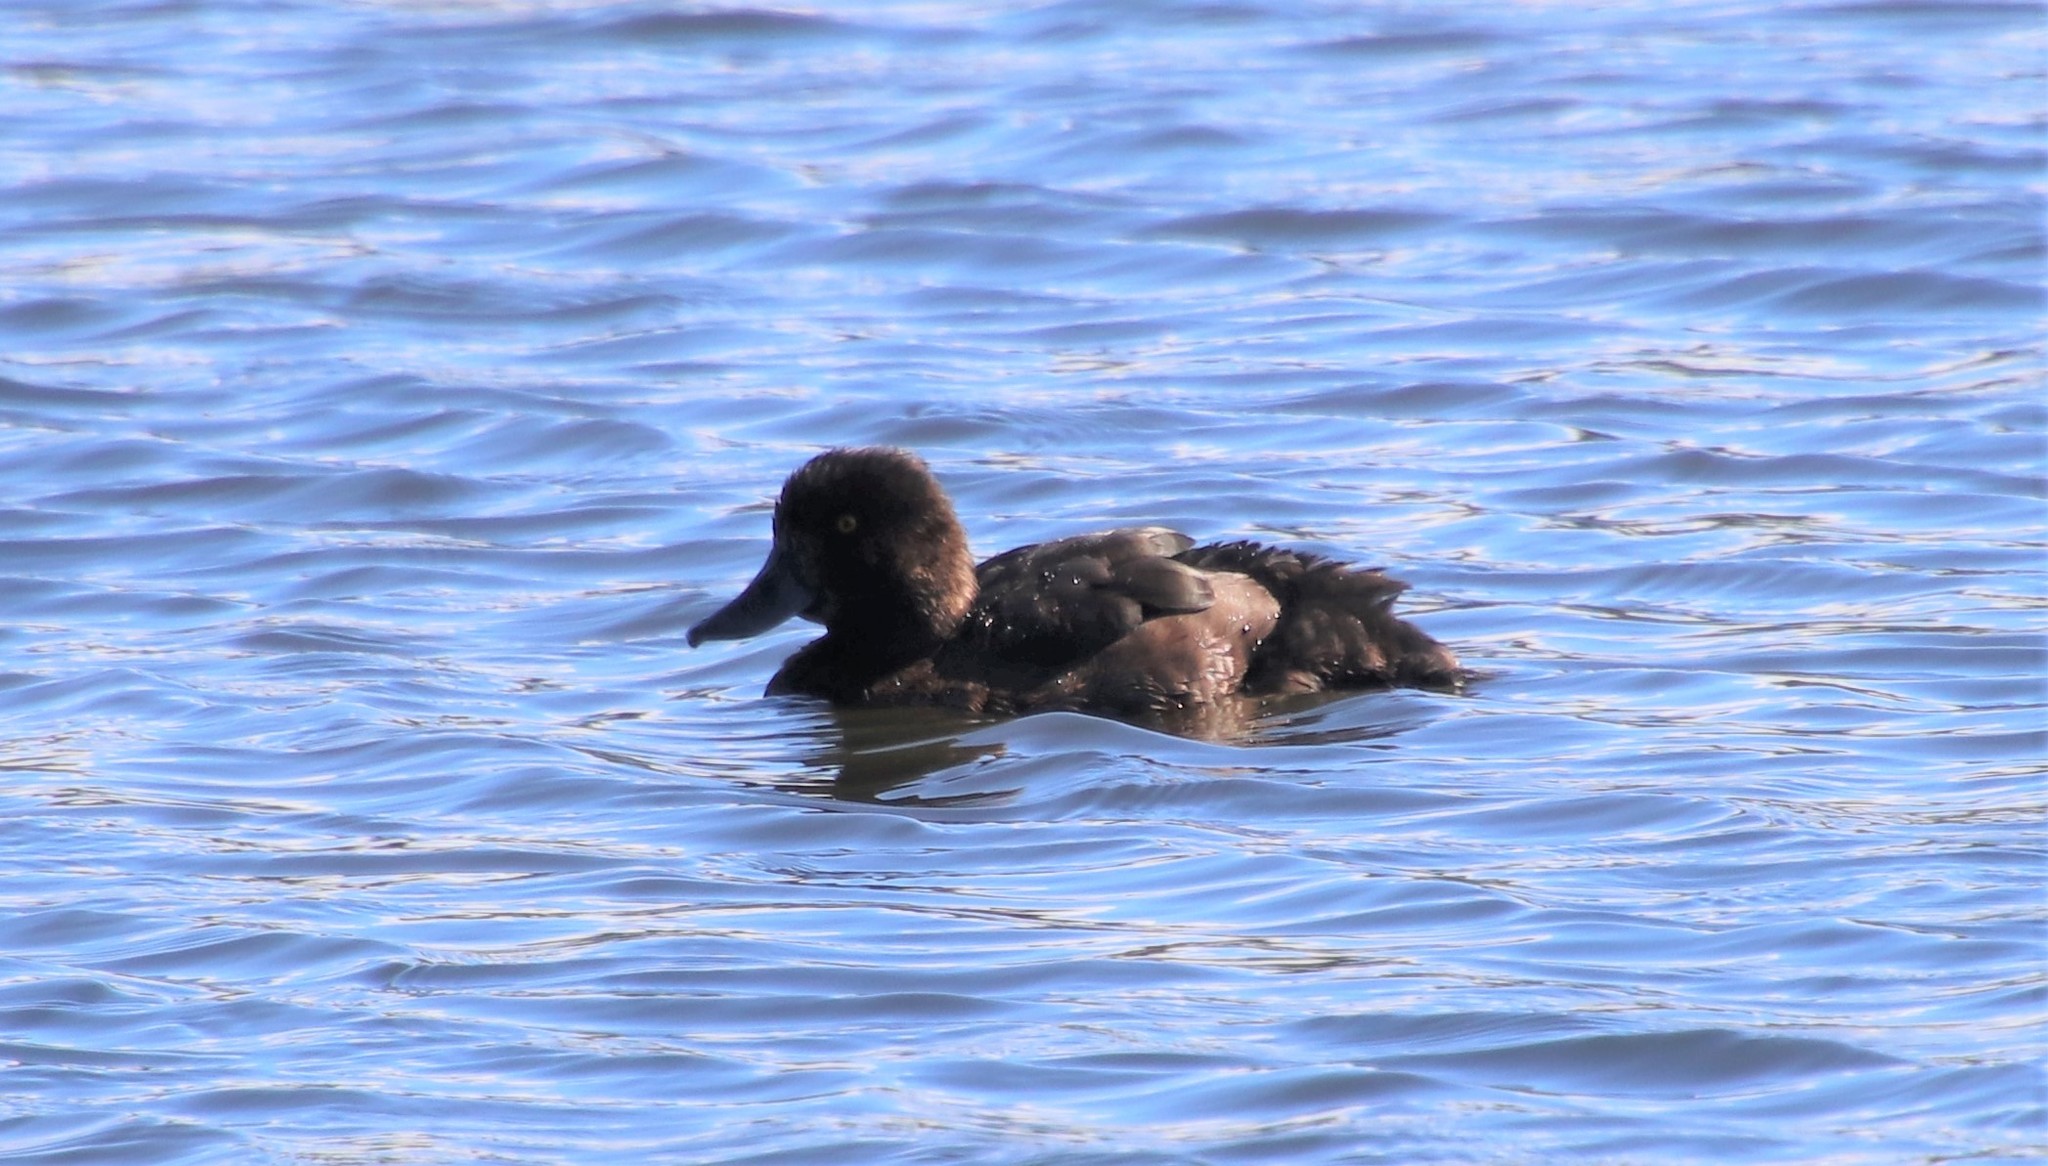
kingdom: Animalia
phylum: Chordata
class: Aves
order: Anseriformes
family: Anatidae
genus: Aythya
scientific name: Aythya fuligula
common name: Tufted duck
